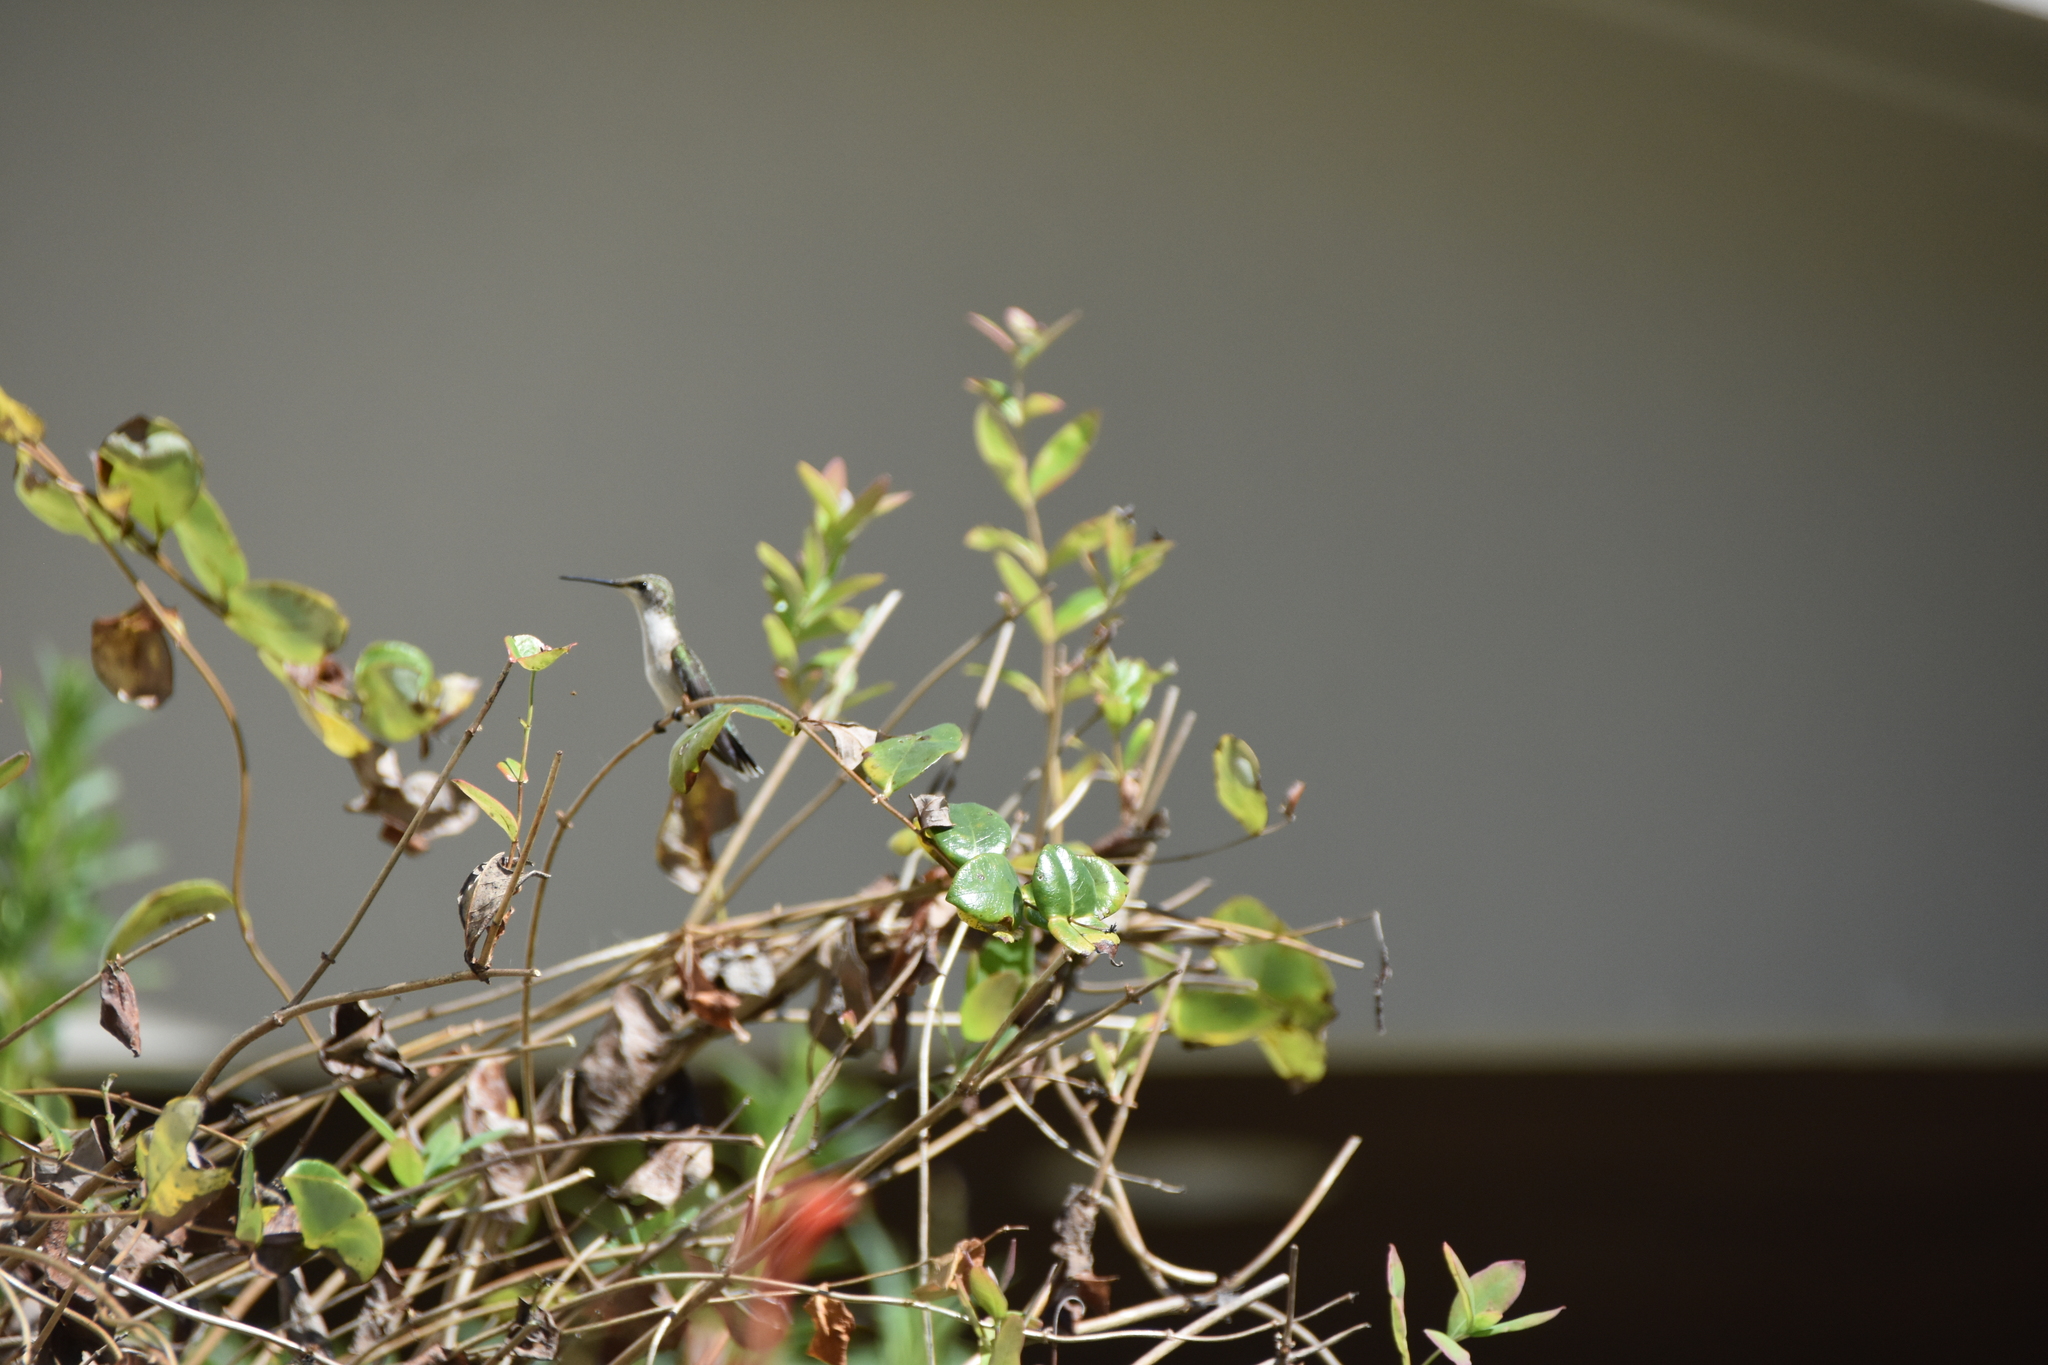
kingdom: Animalia
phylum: Chordata
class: Aves
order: Apodiformes
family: Trochilidae
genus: Archilochus
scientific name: Archilochus colubris
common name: Ruby-throated hummingbird
